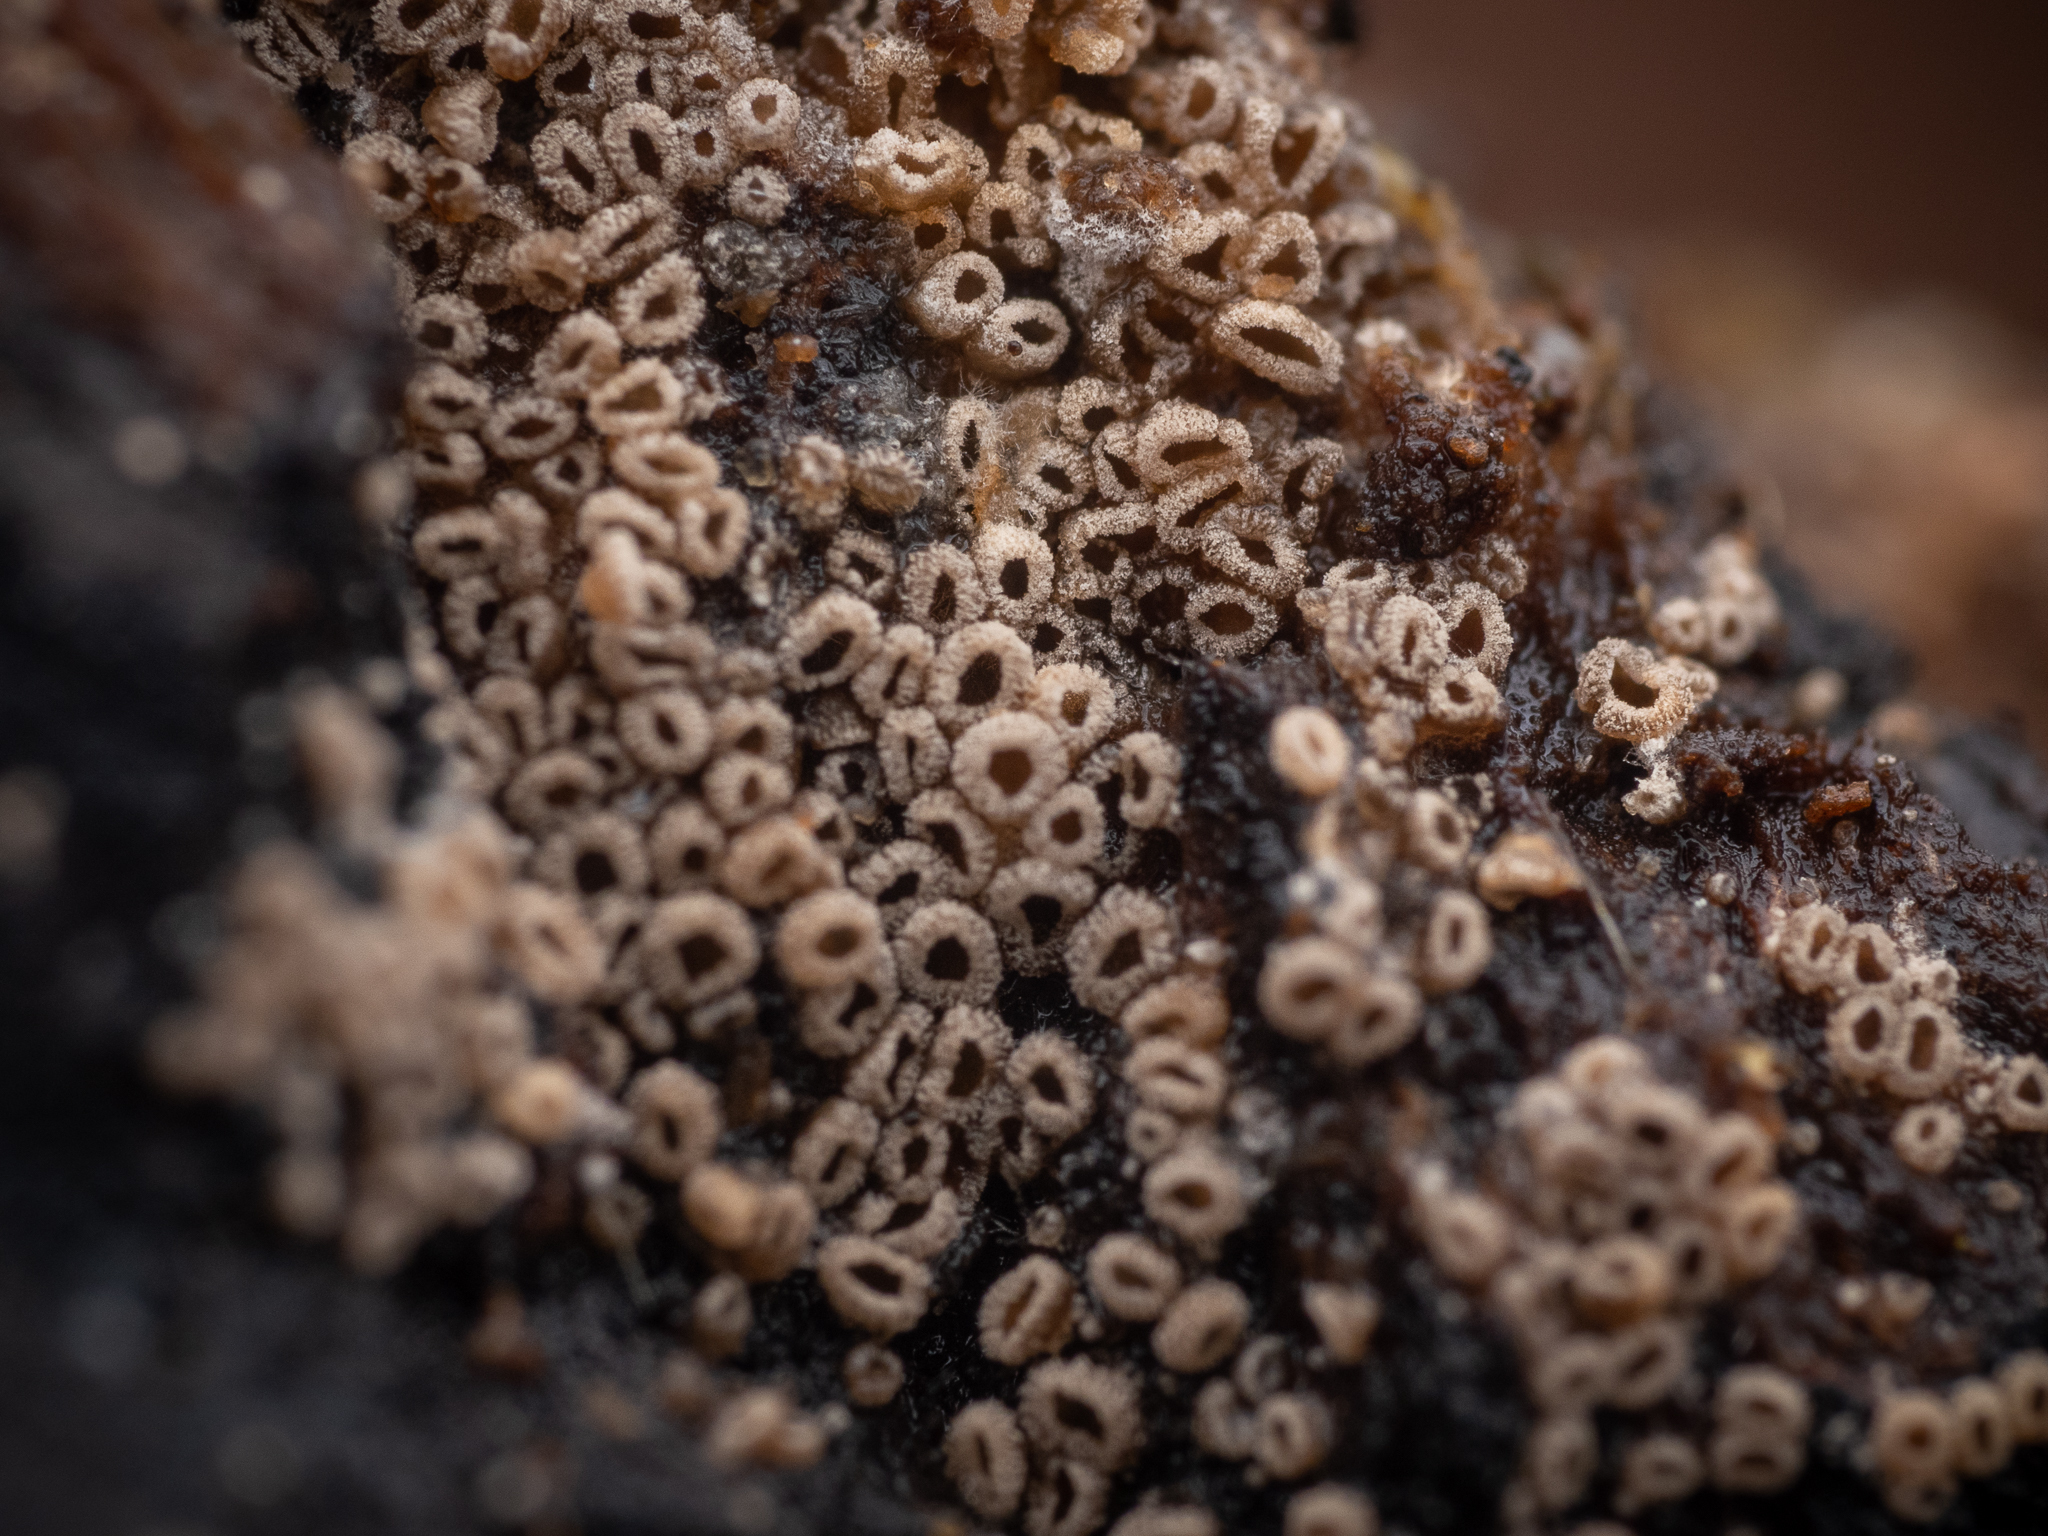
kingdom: Fungi
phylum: Basidiomycota
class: Agaricomycetes
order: Agaricales
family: Niaceae
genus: Merismodes
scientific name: Merismodes anomala
